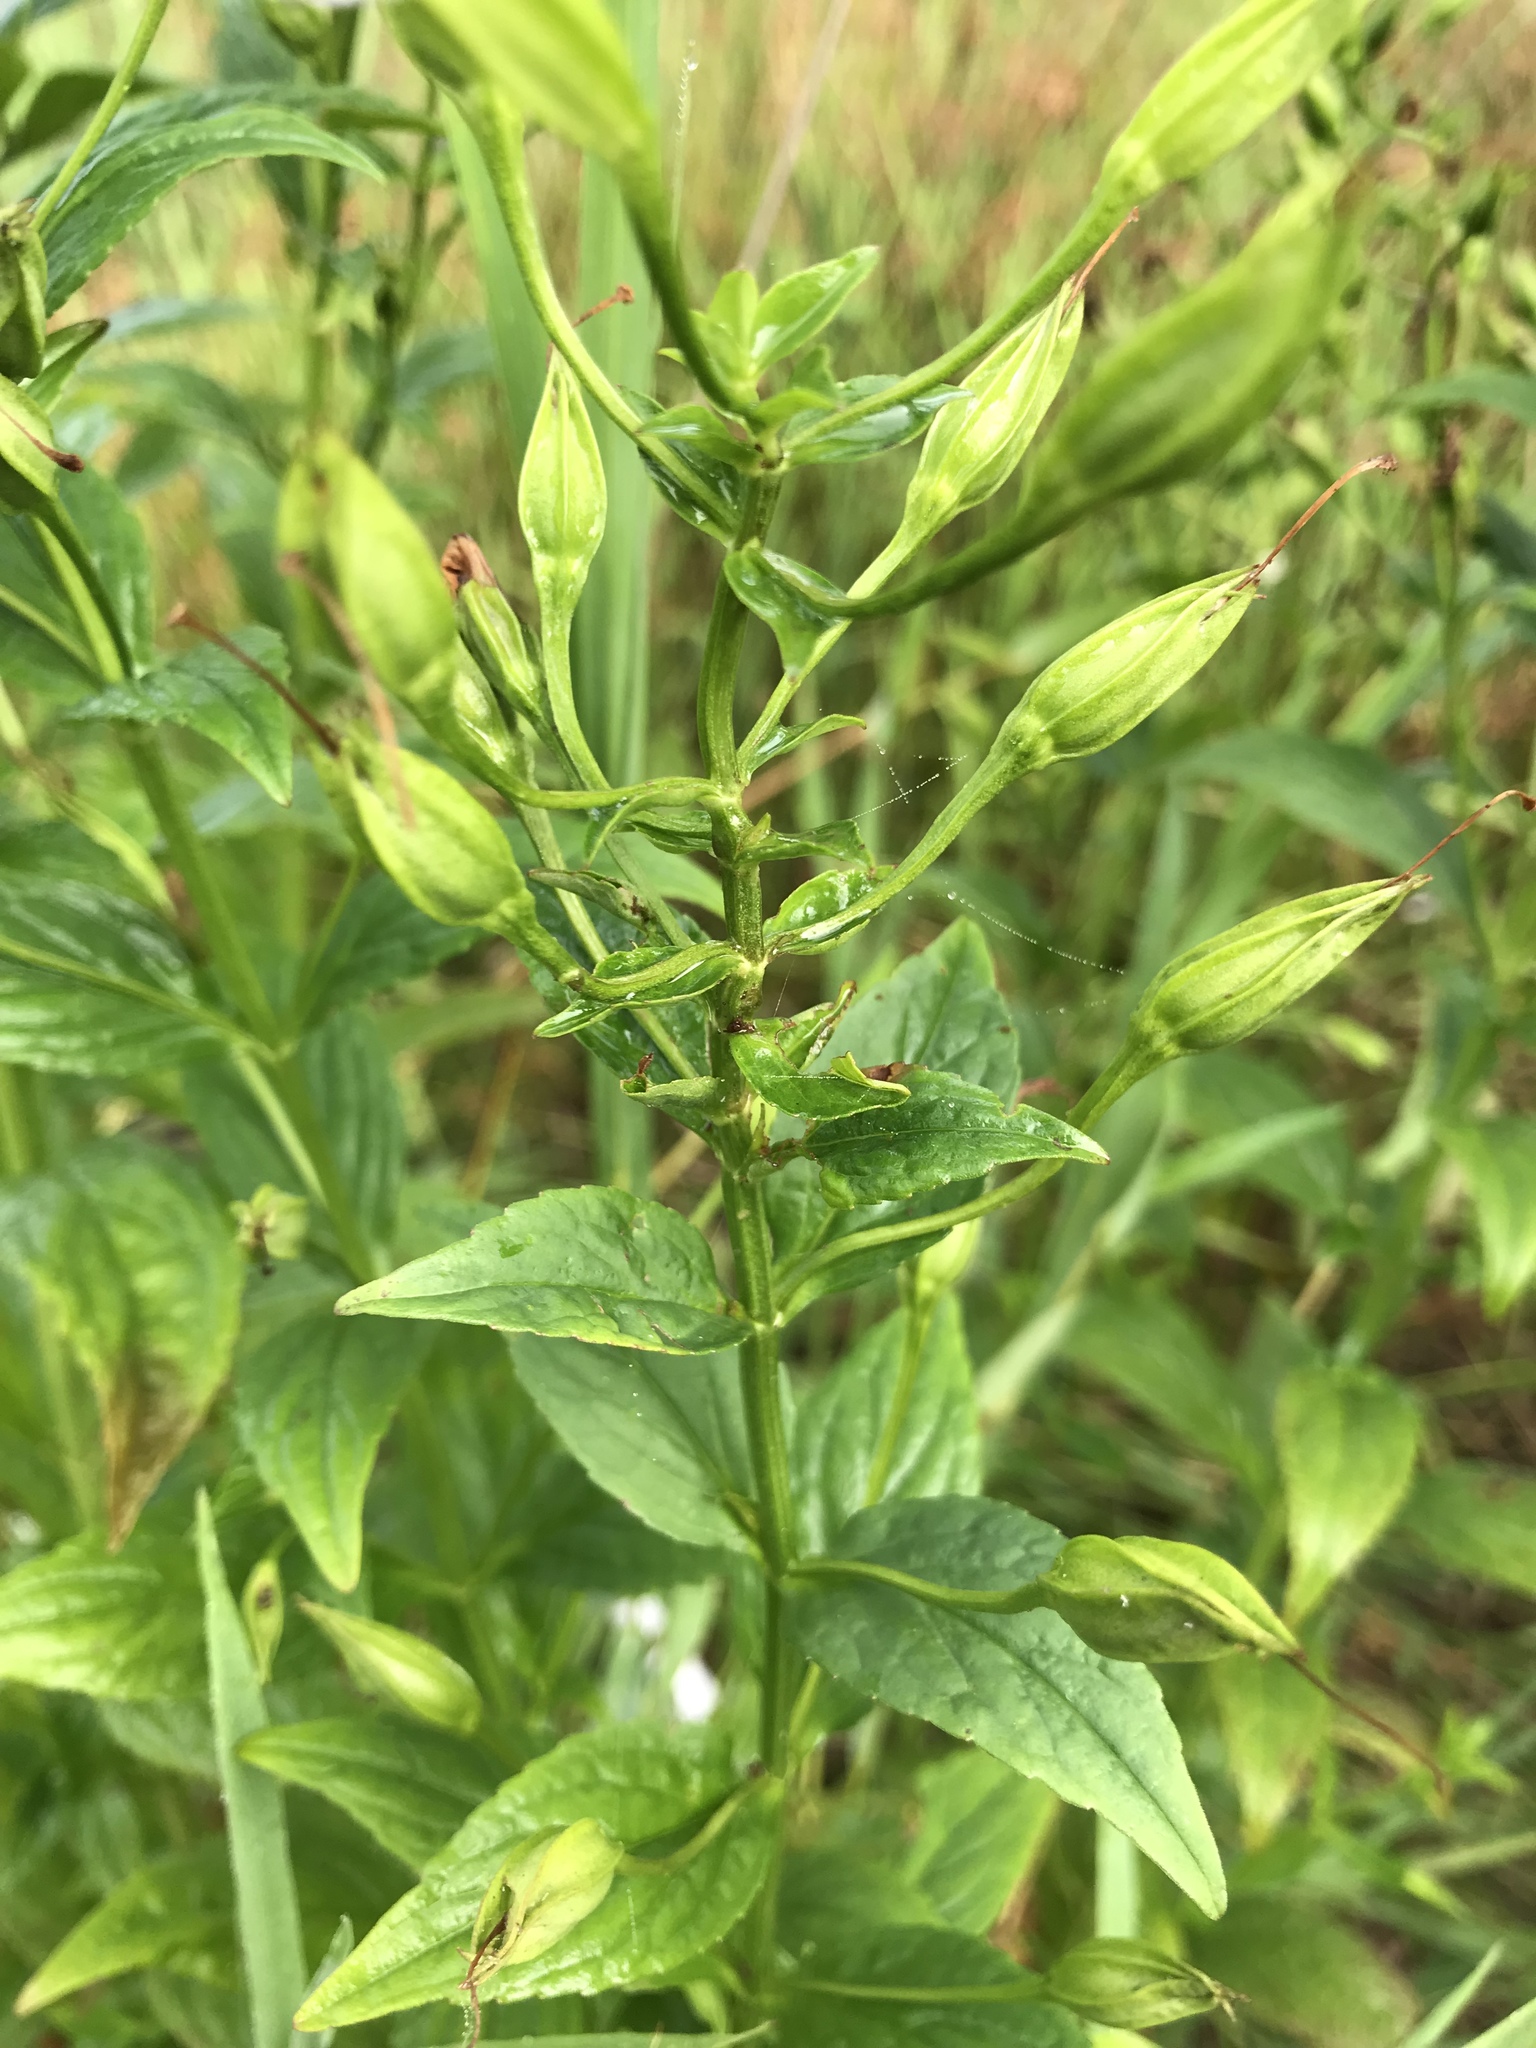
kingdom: Plantae
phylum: Tracheophyta
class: Magnoliopsida
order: Lamiales
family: Phrymaceae
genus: Mimulus
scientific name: Mimulus ringens
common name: Allegheny monkeyflower
